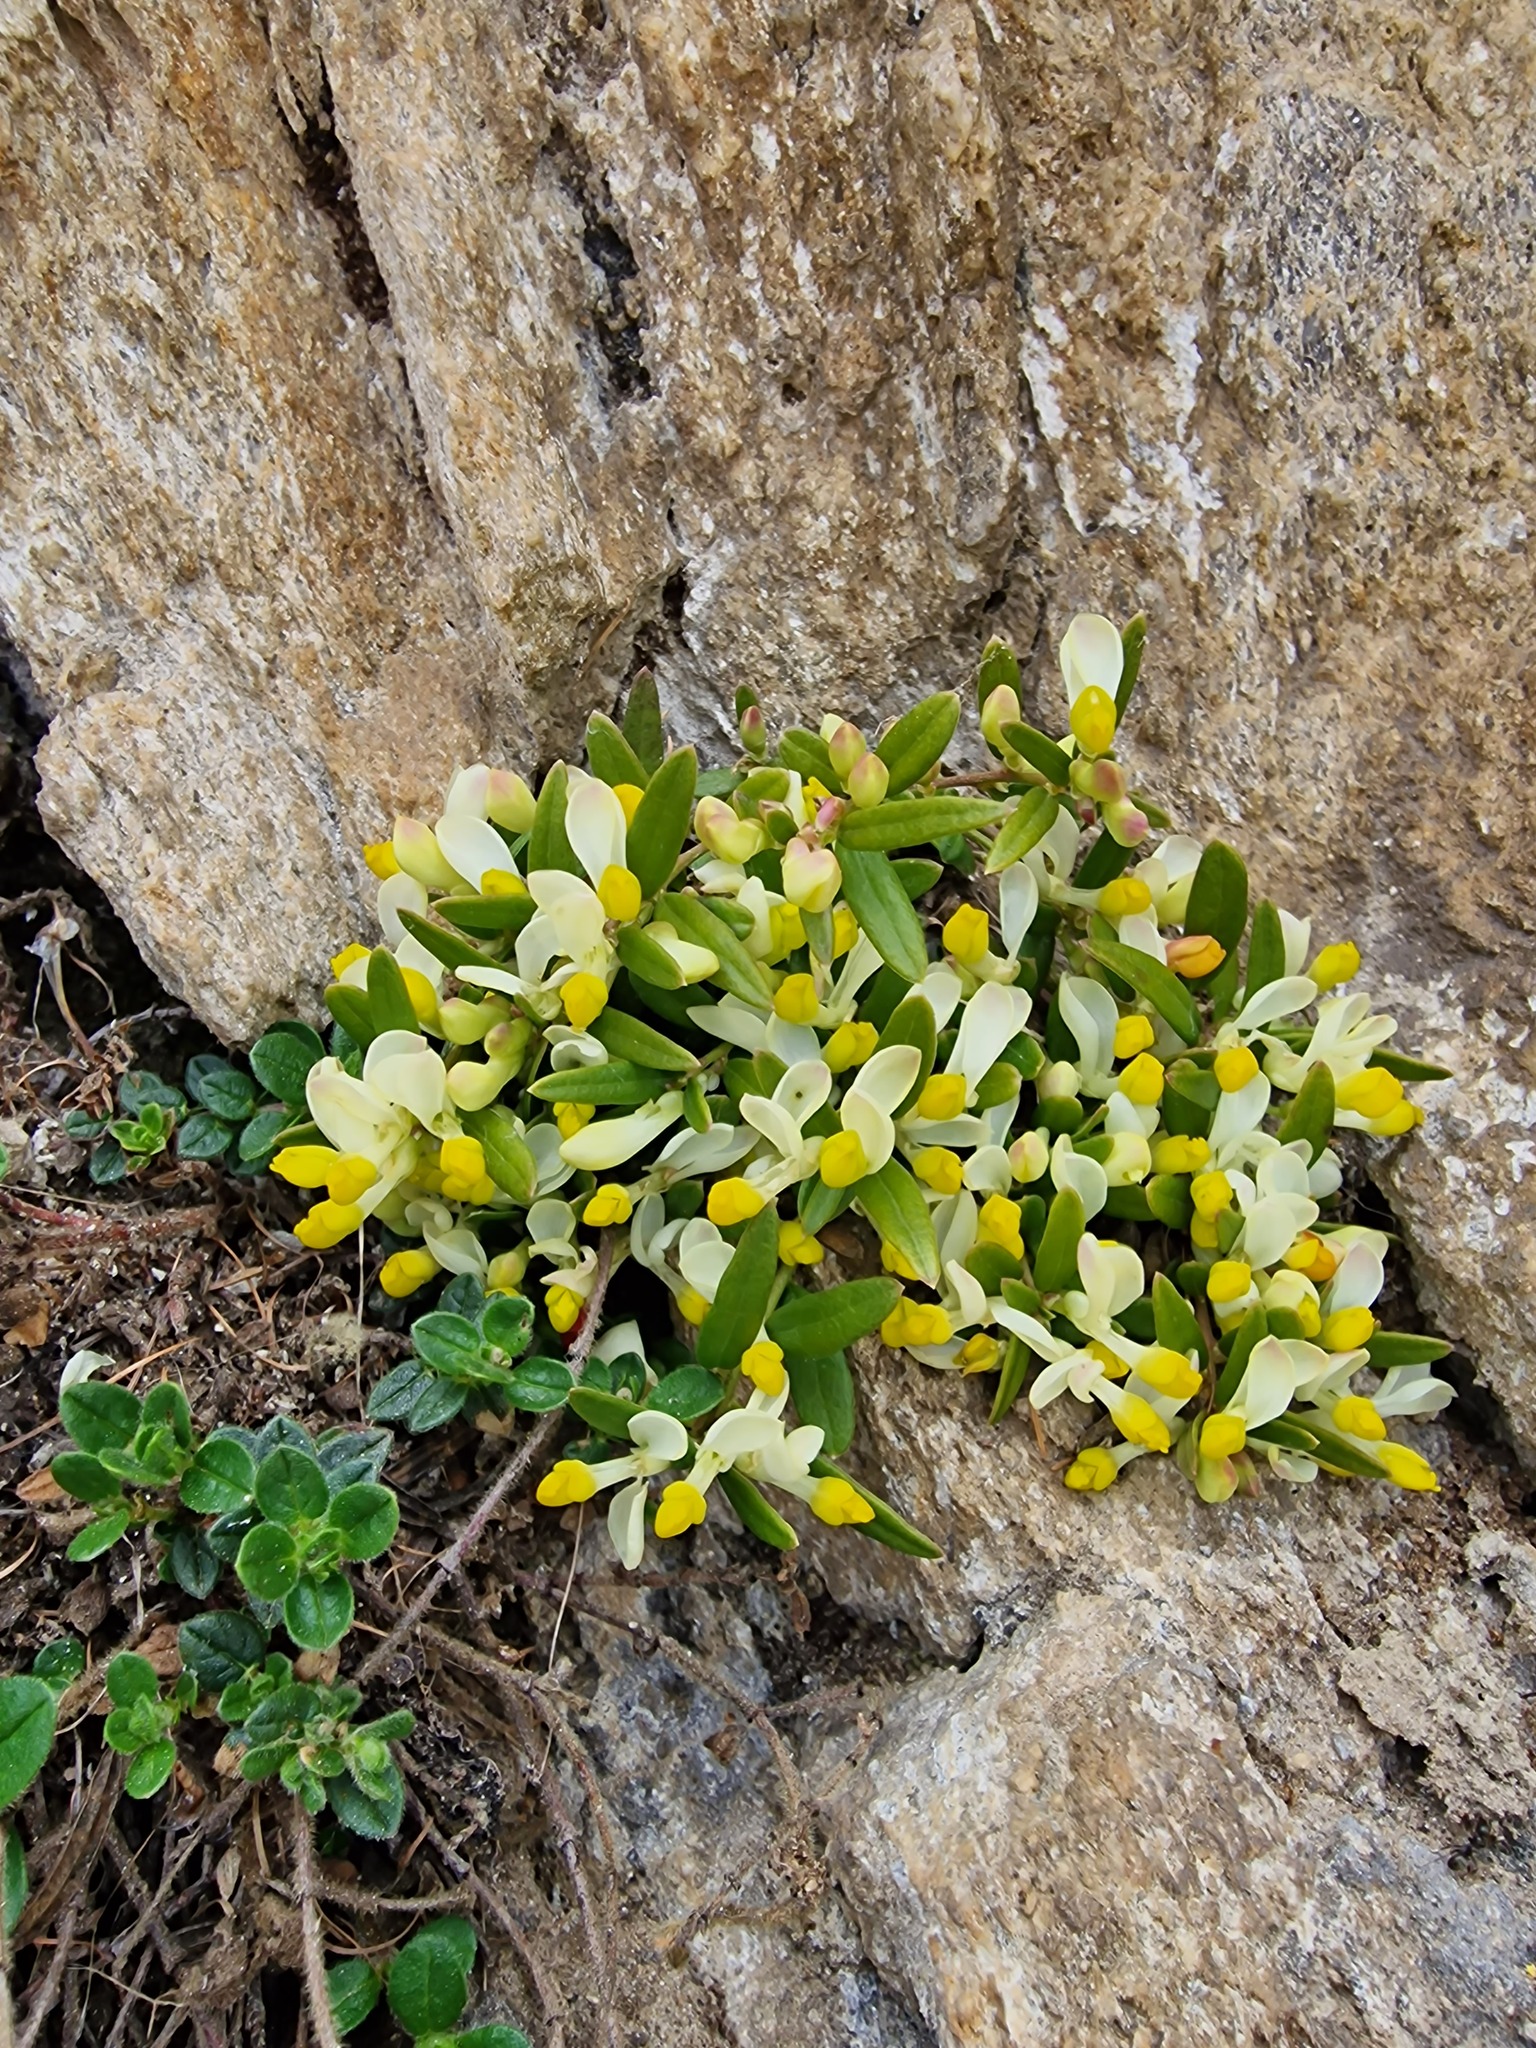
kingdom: Plantae
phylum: Tracheophyta
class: Magnoliopsida
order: Fabales
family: Polygalaceae
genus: Polygaloides
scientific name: Polygaloides chamaebuxus
